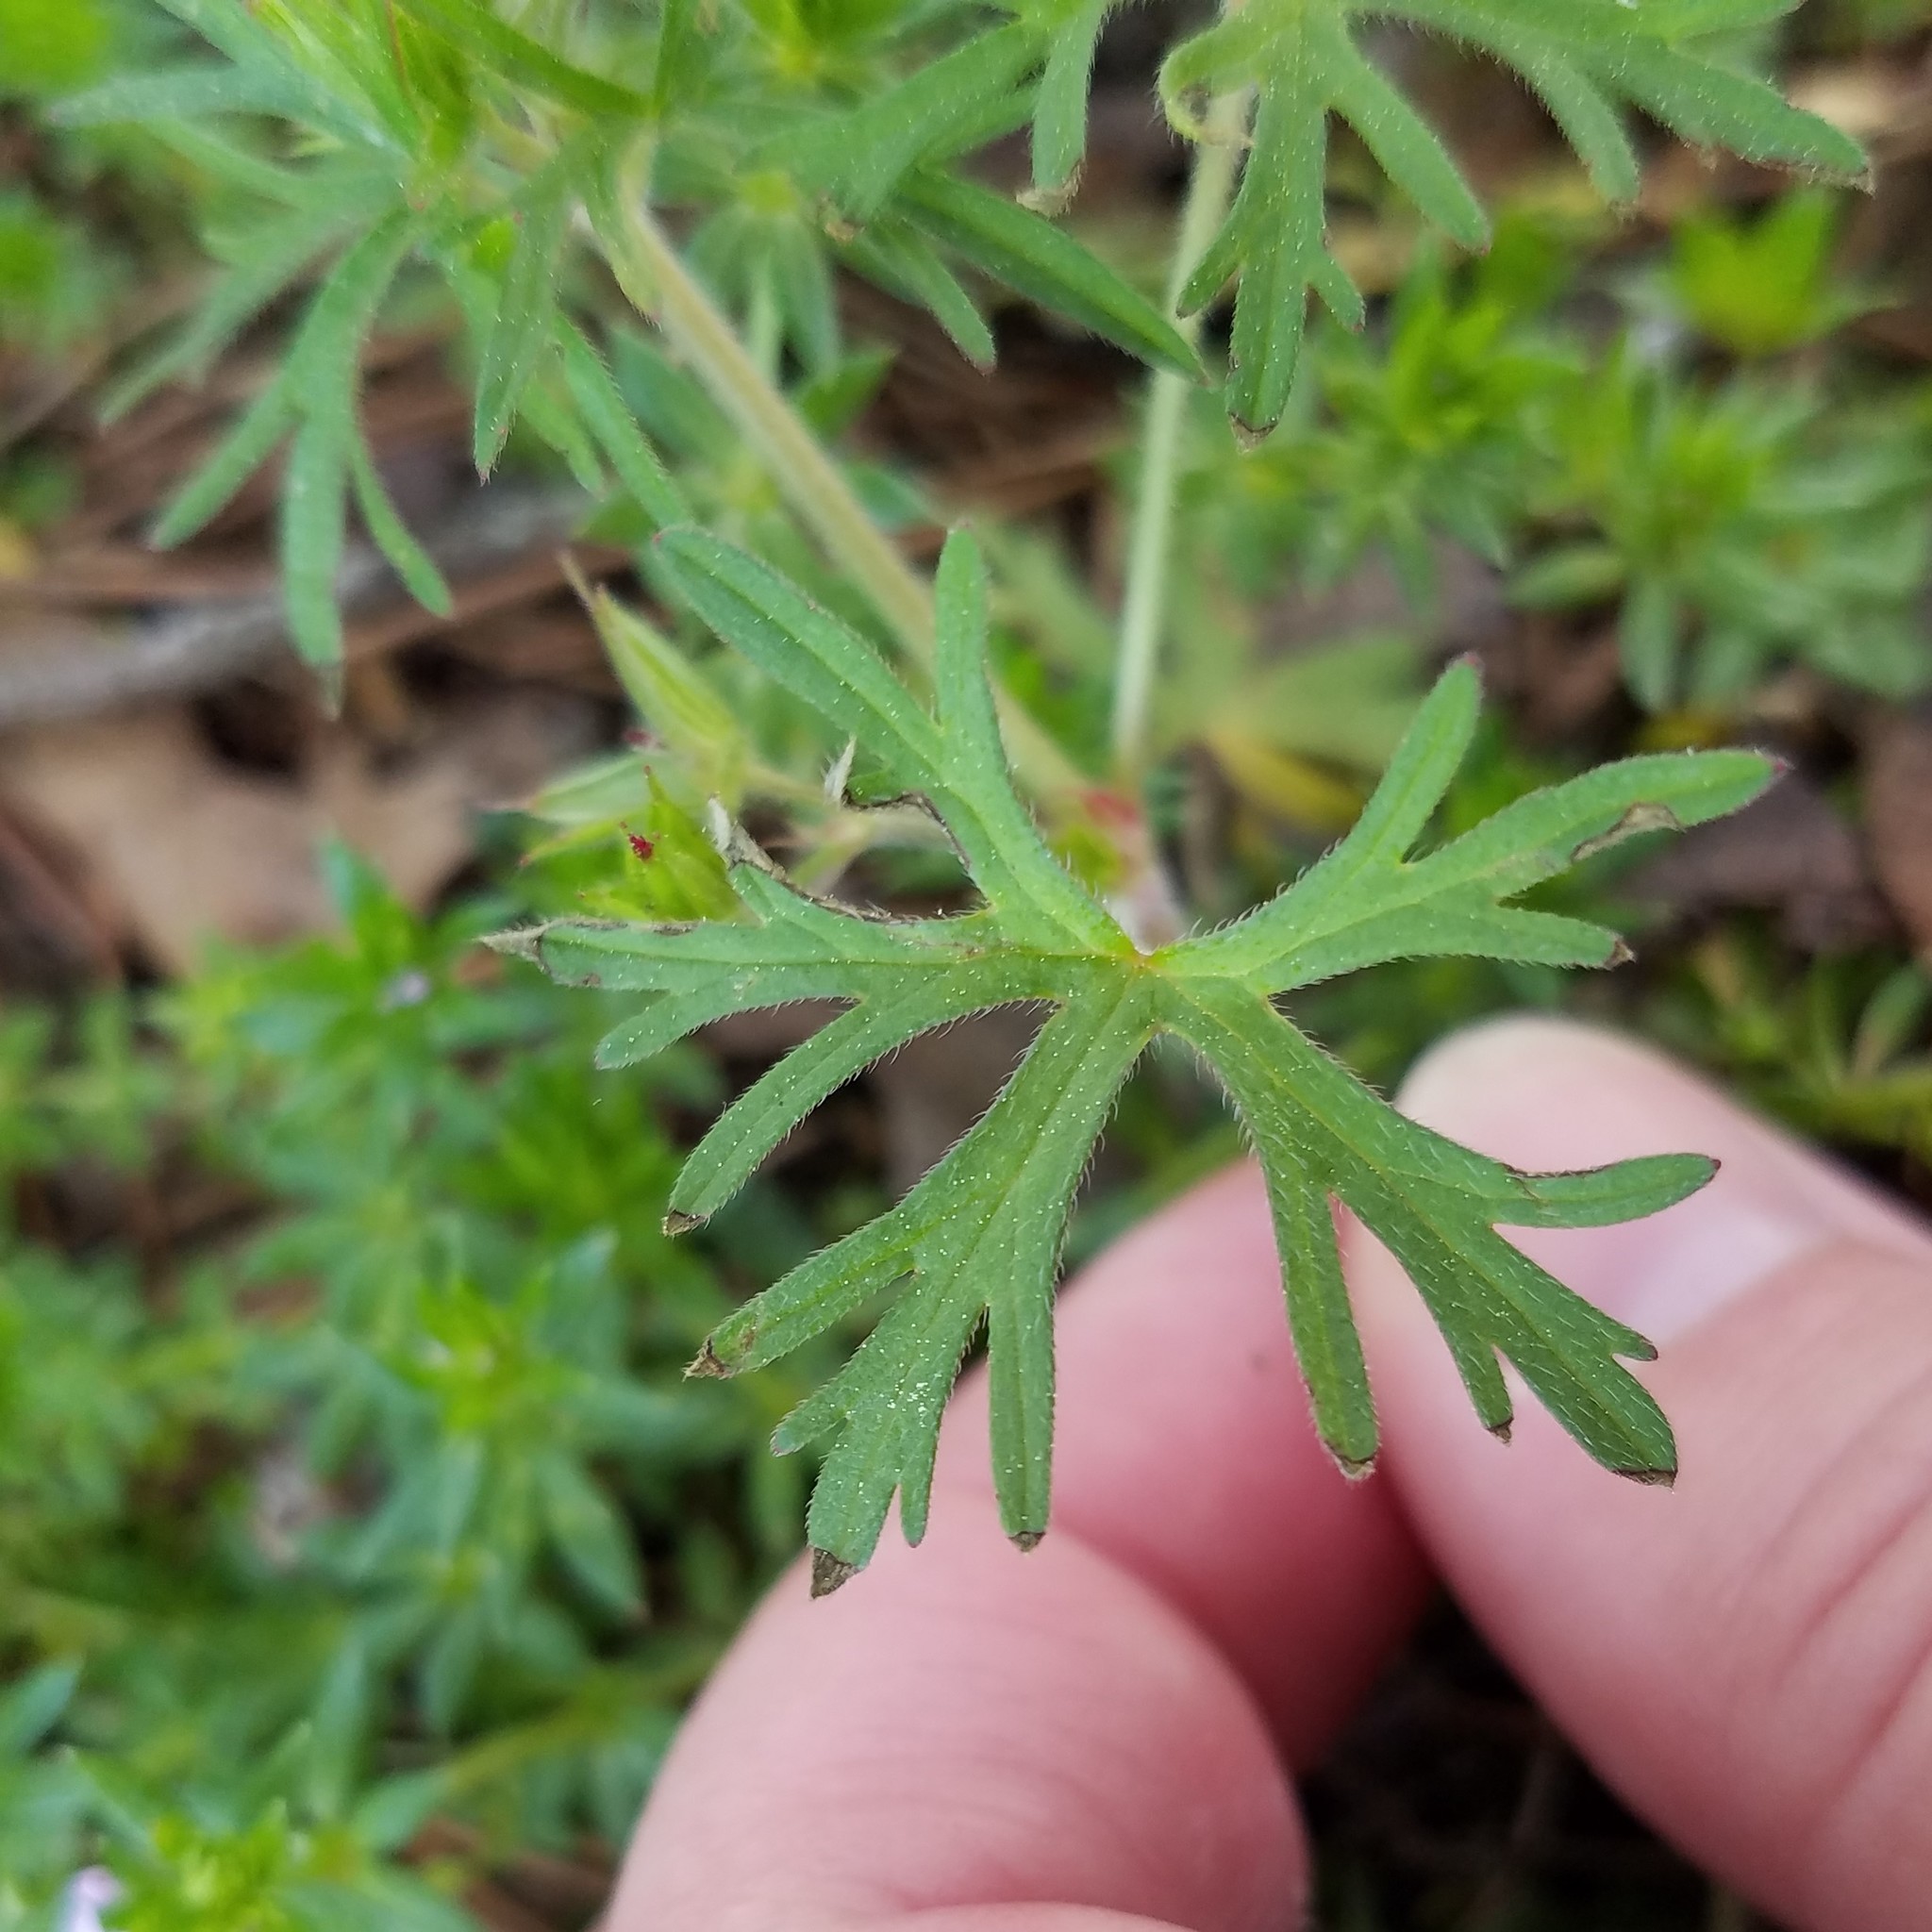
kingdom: Plantae
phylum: Tracheophyta
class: Magnoliopsida
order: Geraniales
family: Geraniaceae
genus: Geranium
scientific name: Geranium dissectum
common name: Cut-leaved crane's-bill
